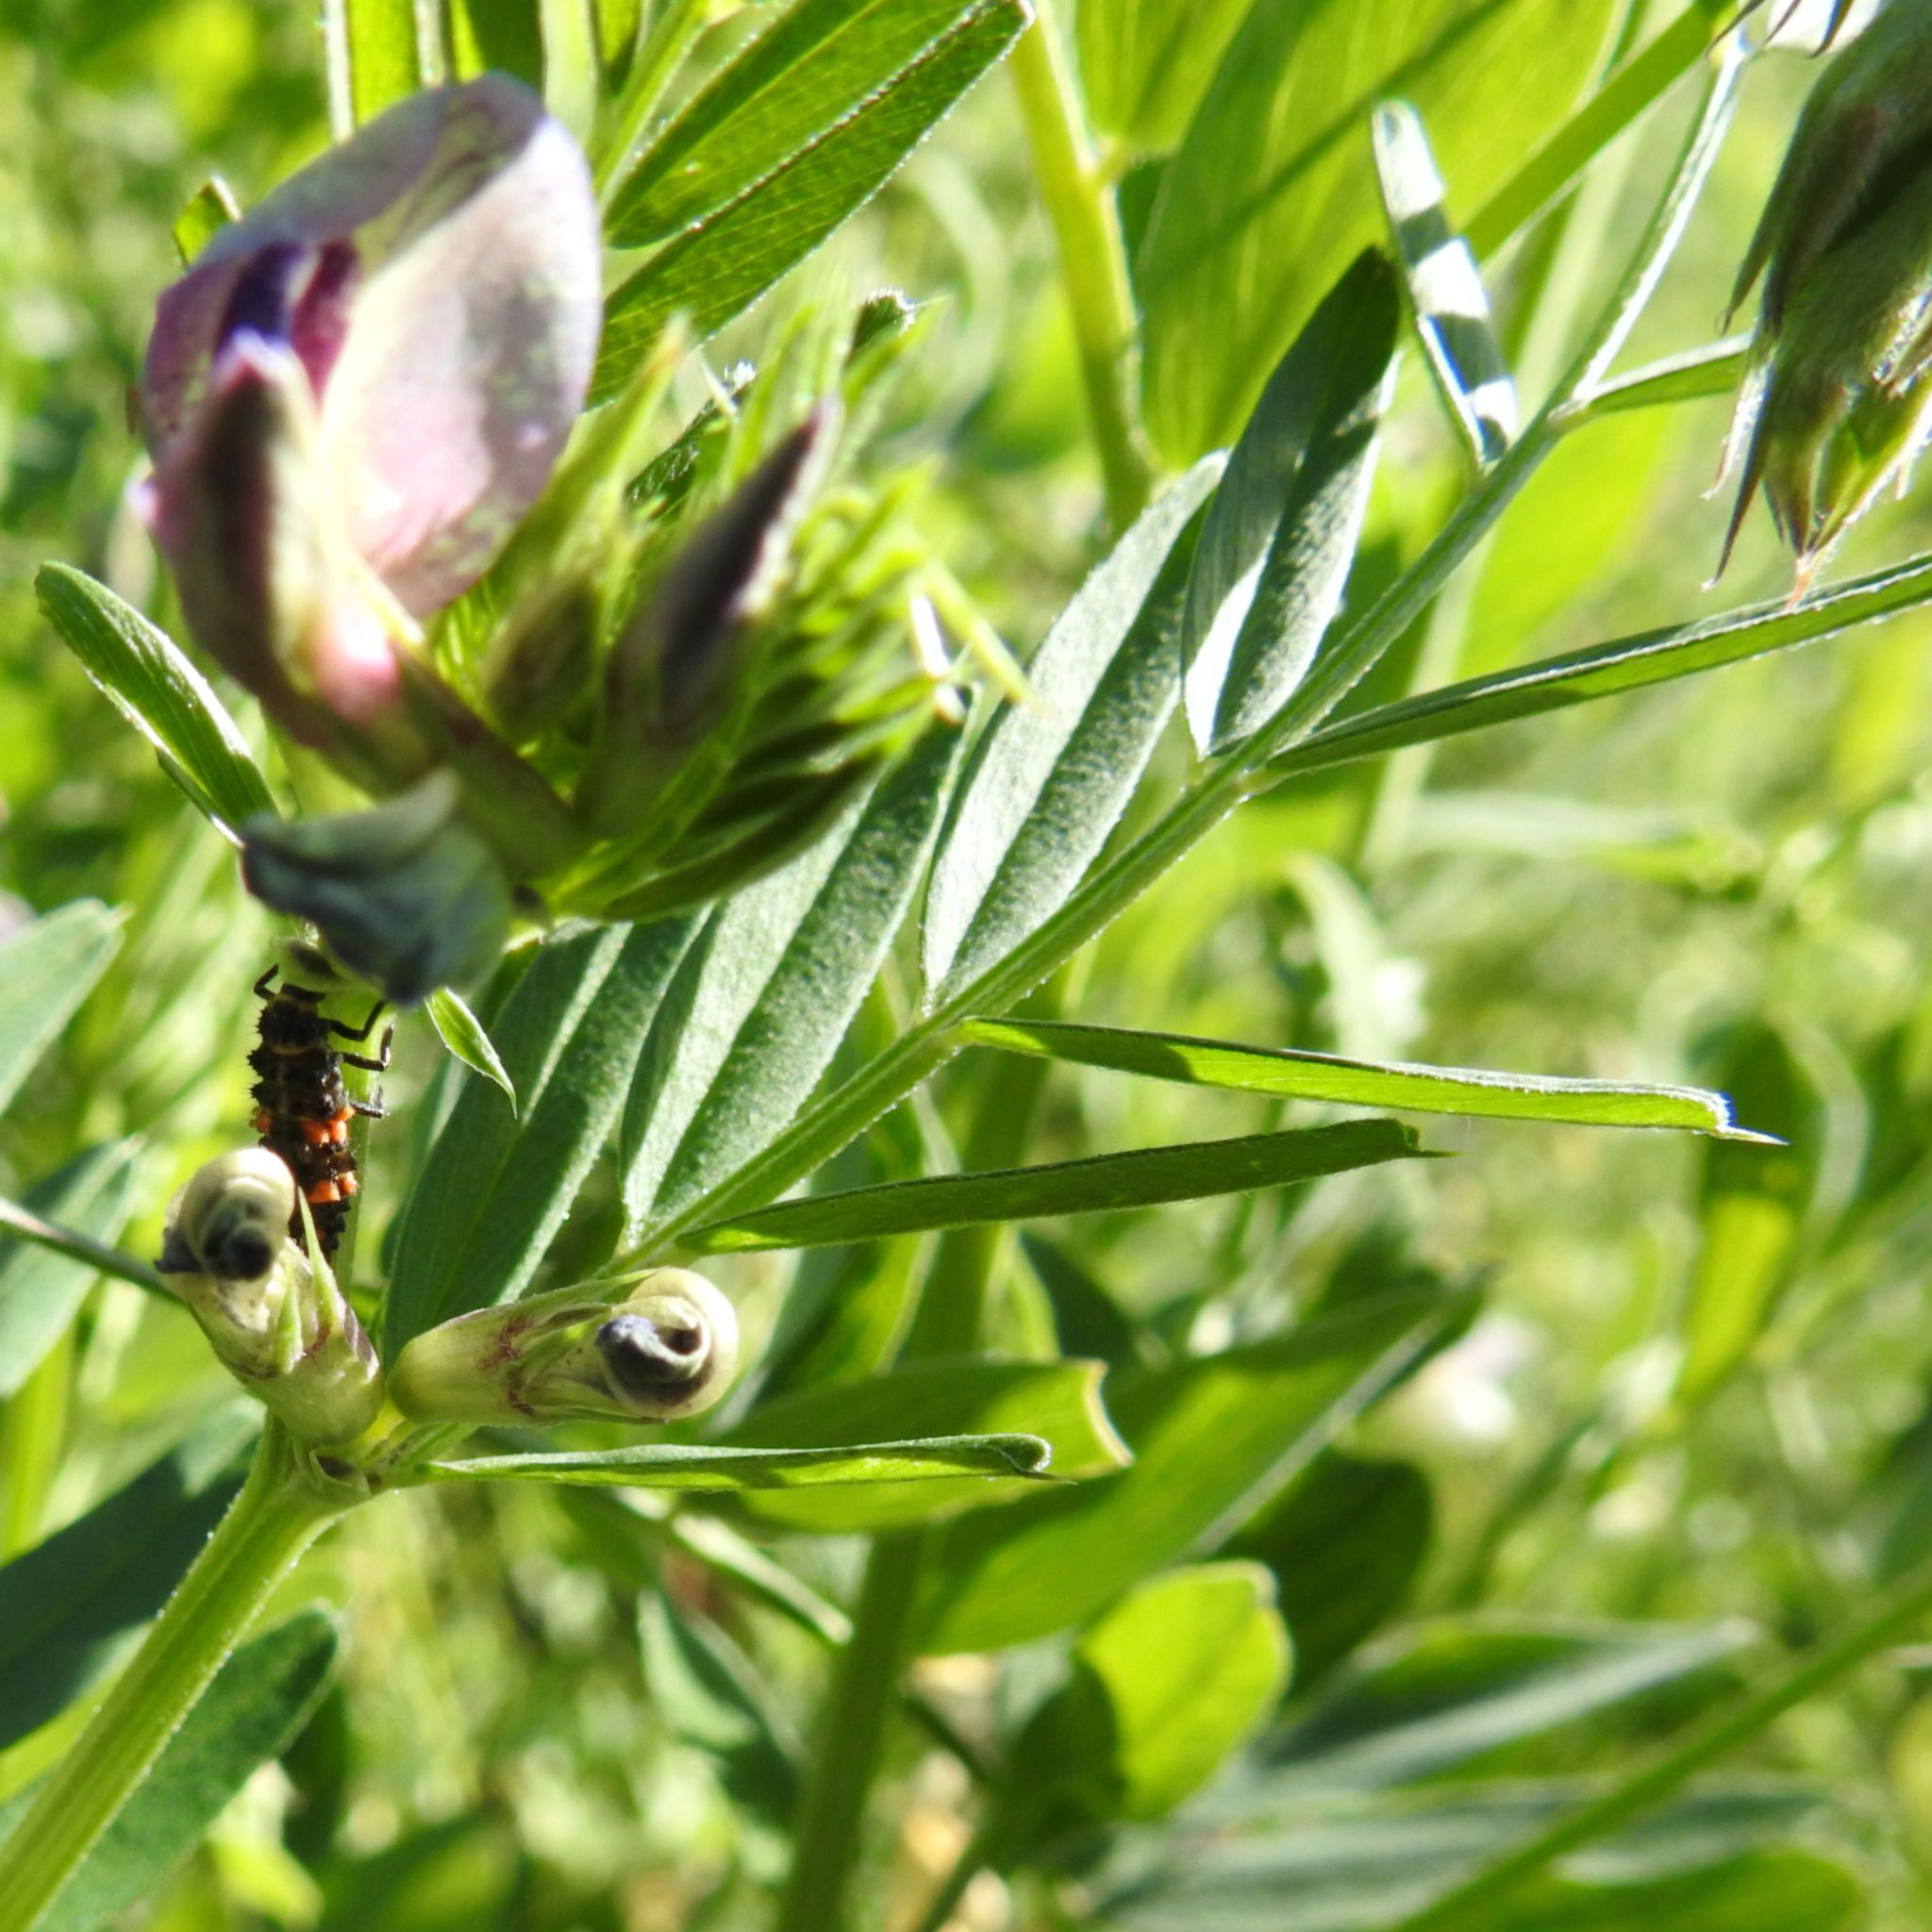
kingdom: Plantae
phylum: Tracheophyta
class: Magnoliopsida
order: Fabales
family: Fabaceae
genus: Lathyrus
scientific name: Lathyrus vestitus
